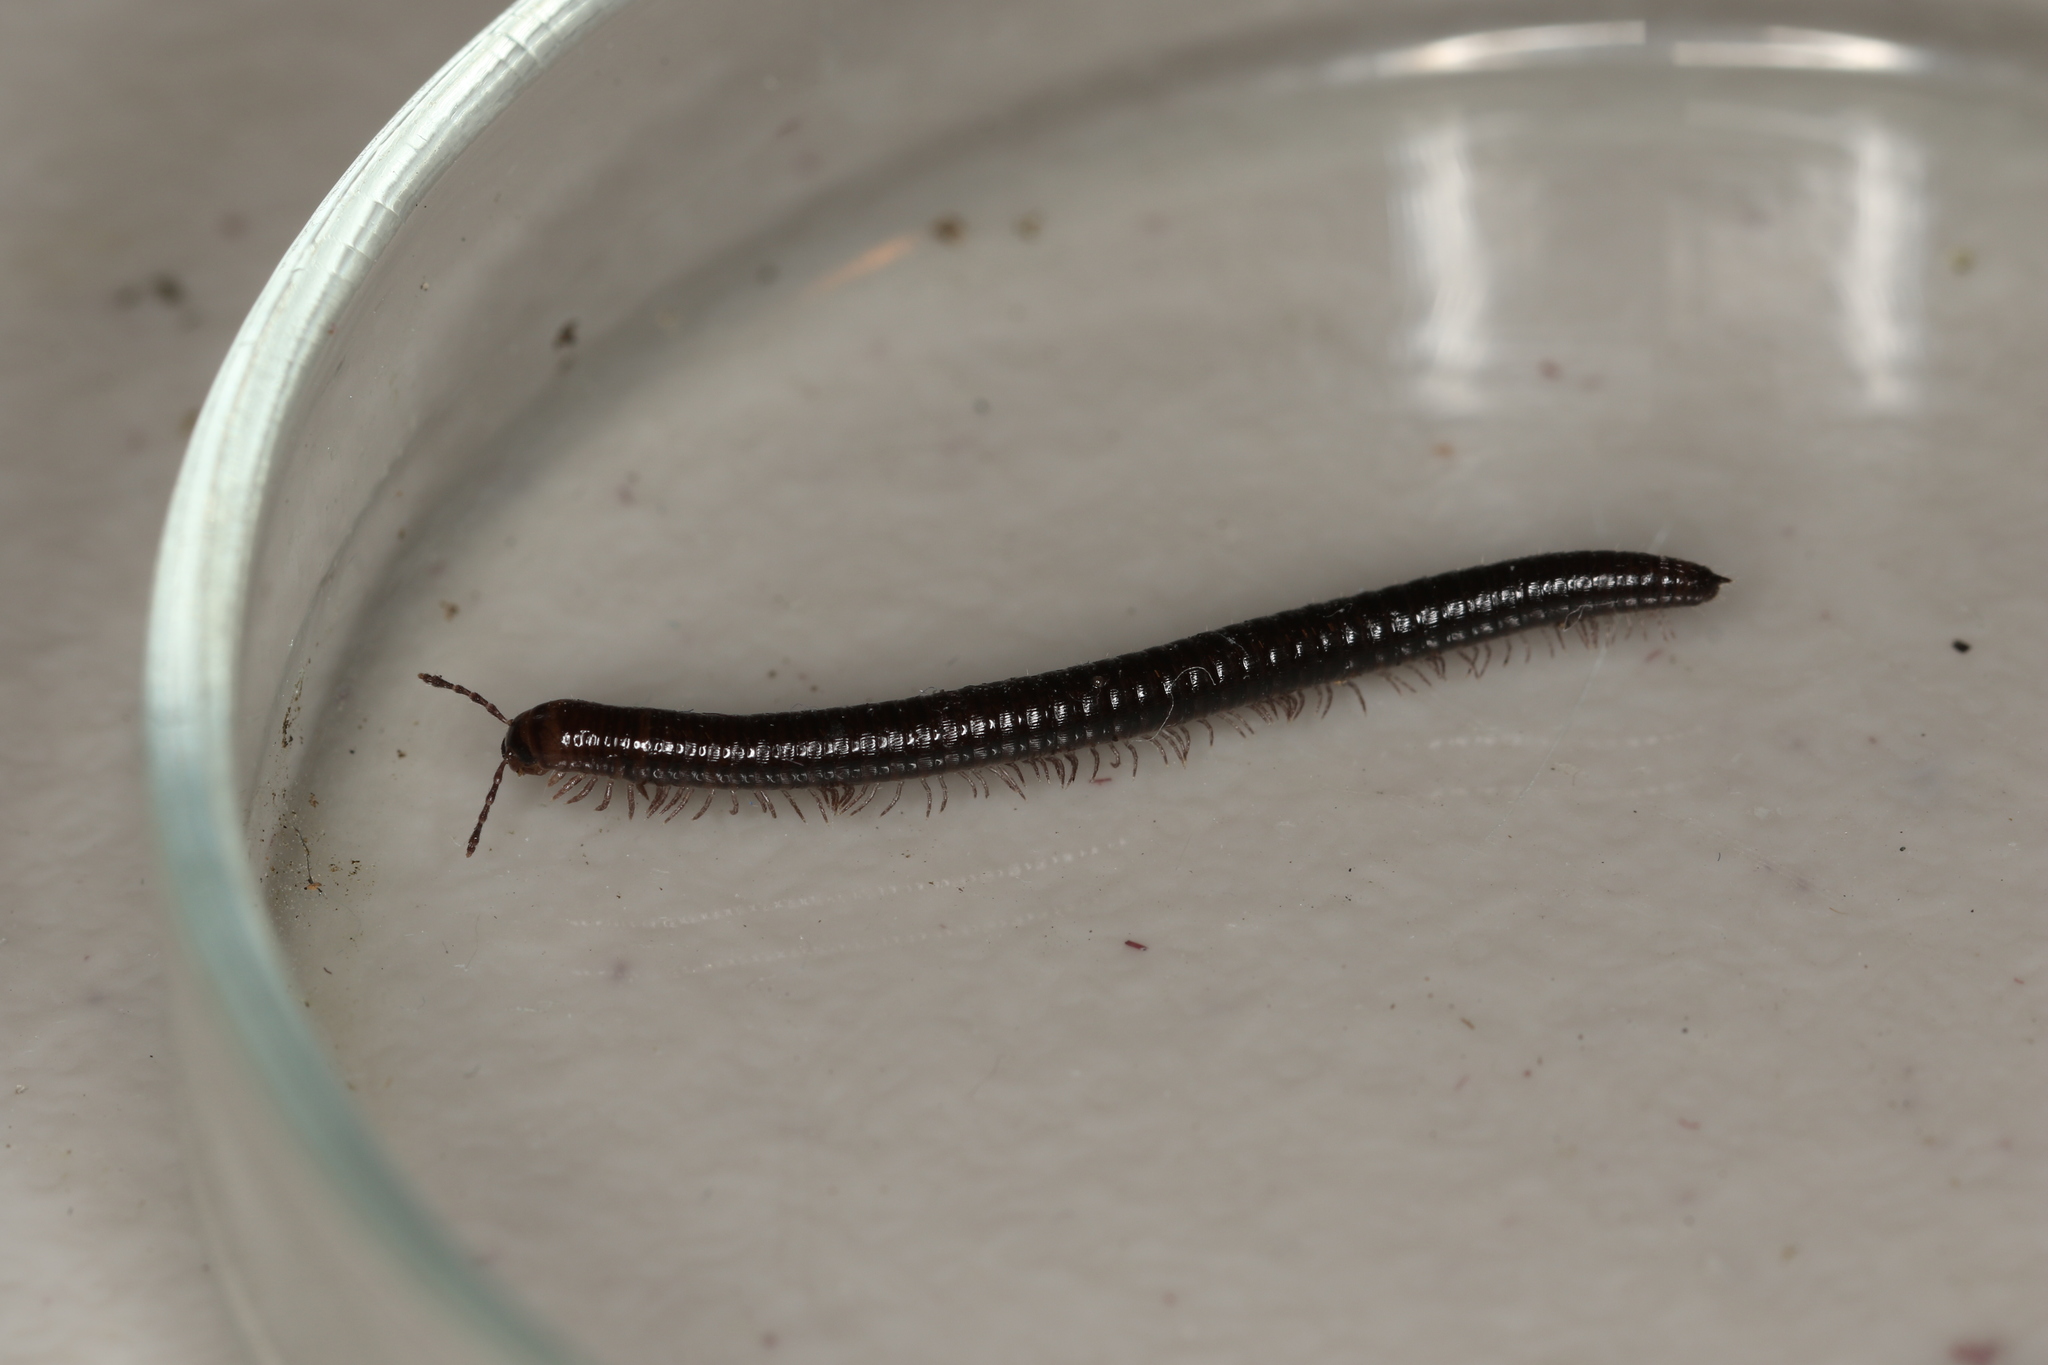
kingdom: Animalia
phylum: Arthropoda
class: Diplopoda
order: Julida
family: Julidae
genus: Julus
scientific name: Julus scandinavius
